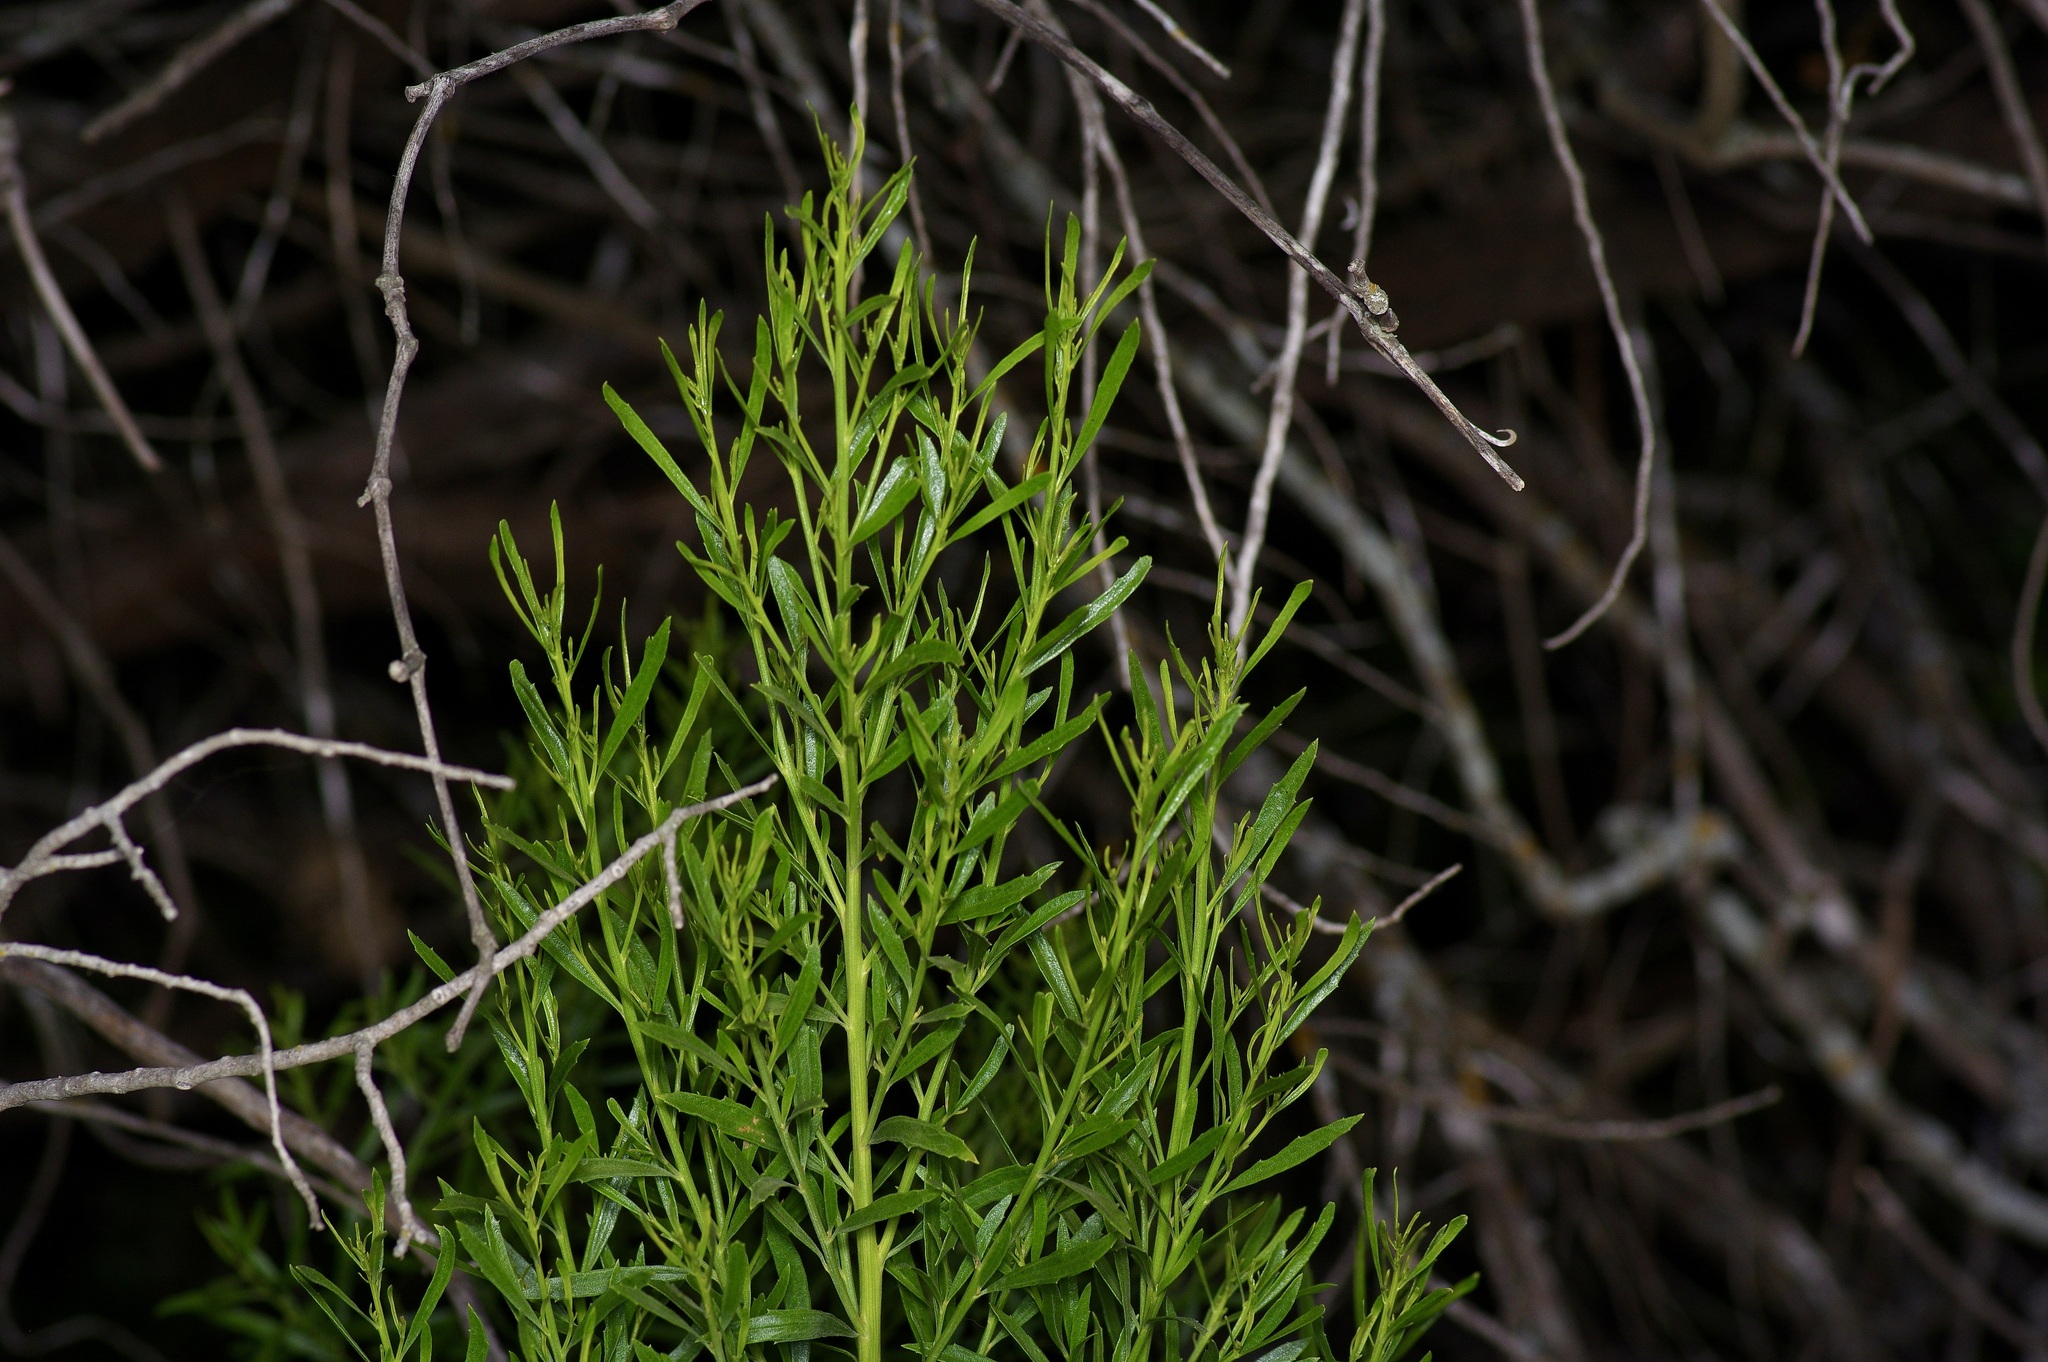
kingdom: Plantae
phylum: Tracheophyta
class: Magnoliopsida
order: Asterales
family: Asteraceae
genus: Baccharis
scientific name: Baccharis neglecta
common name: Roosevelt-weed
